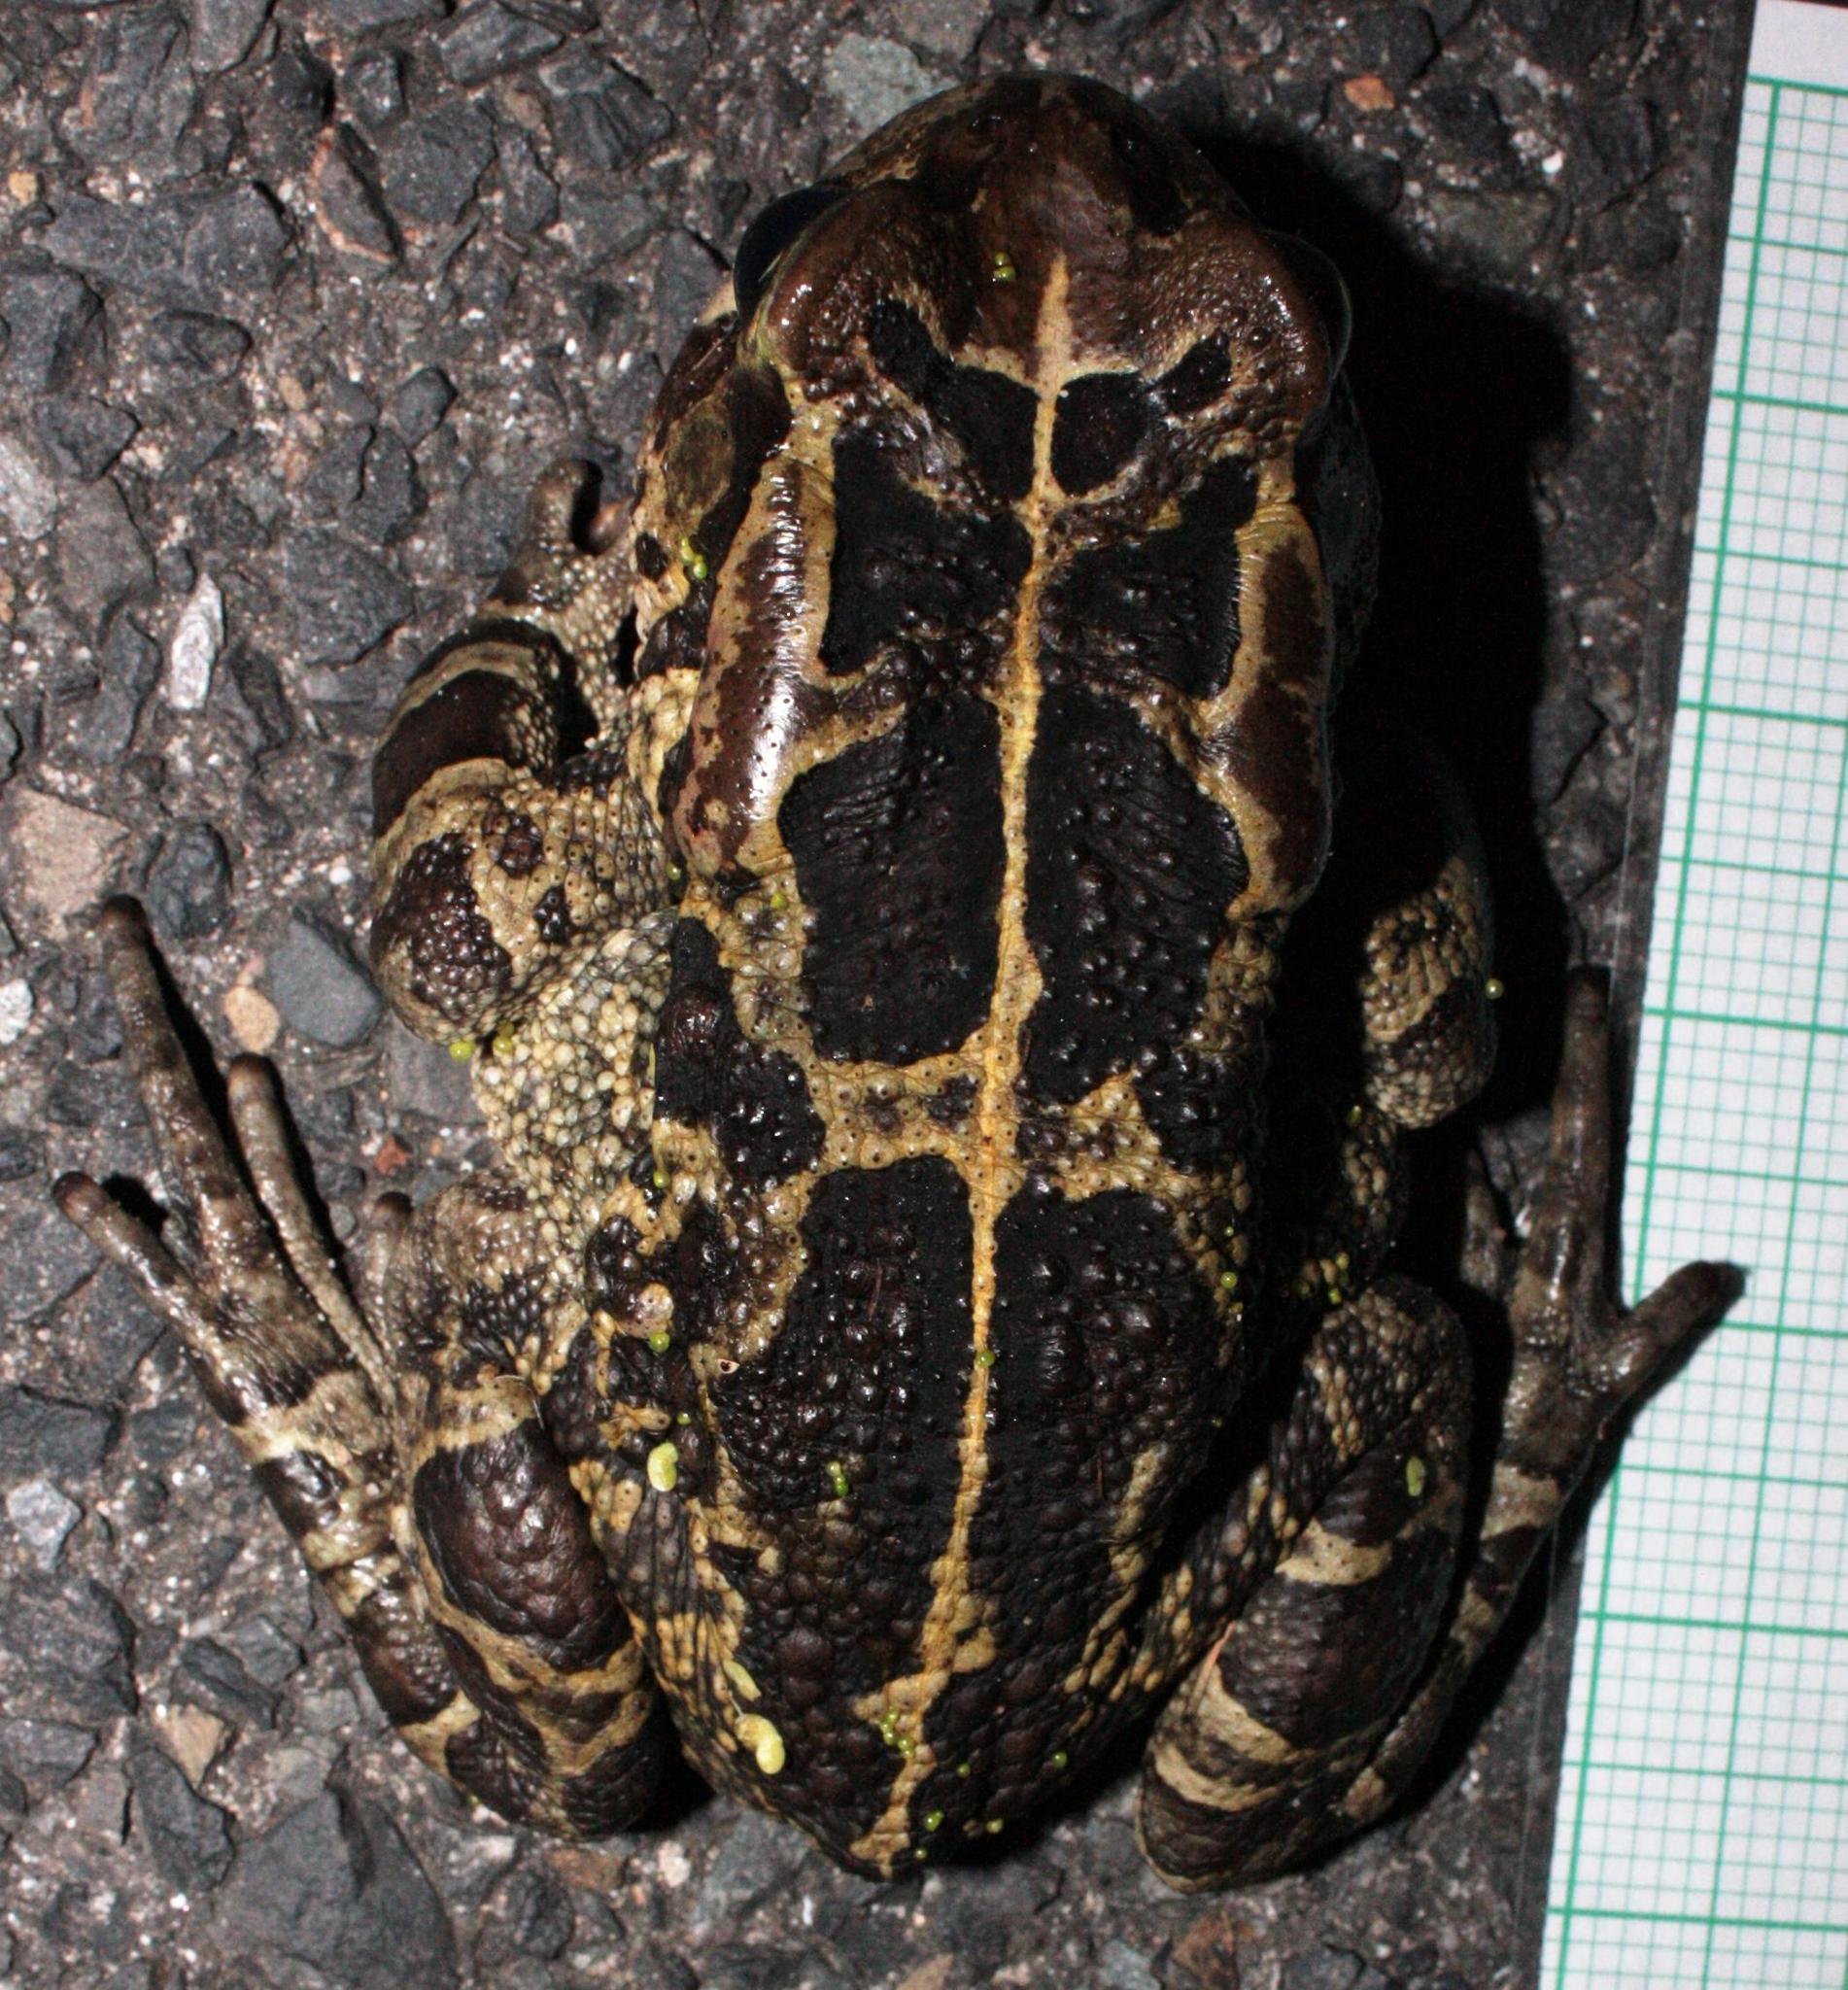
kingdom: Animalia
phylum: Chordata
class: Amphibia
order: Anura
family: Bufonidae
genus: Sclerophrys
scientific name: Sclerophrys pantherina
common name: Panther toad
